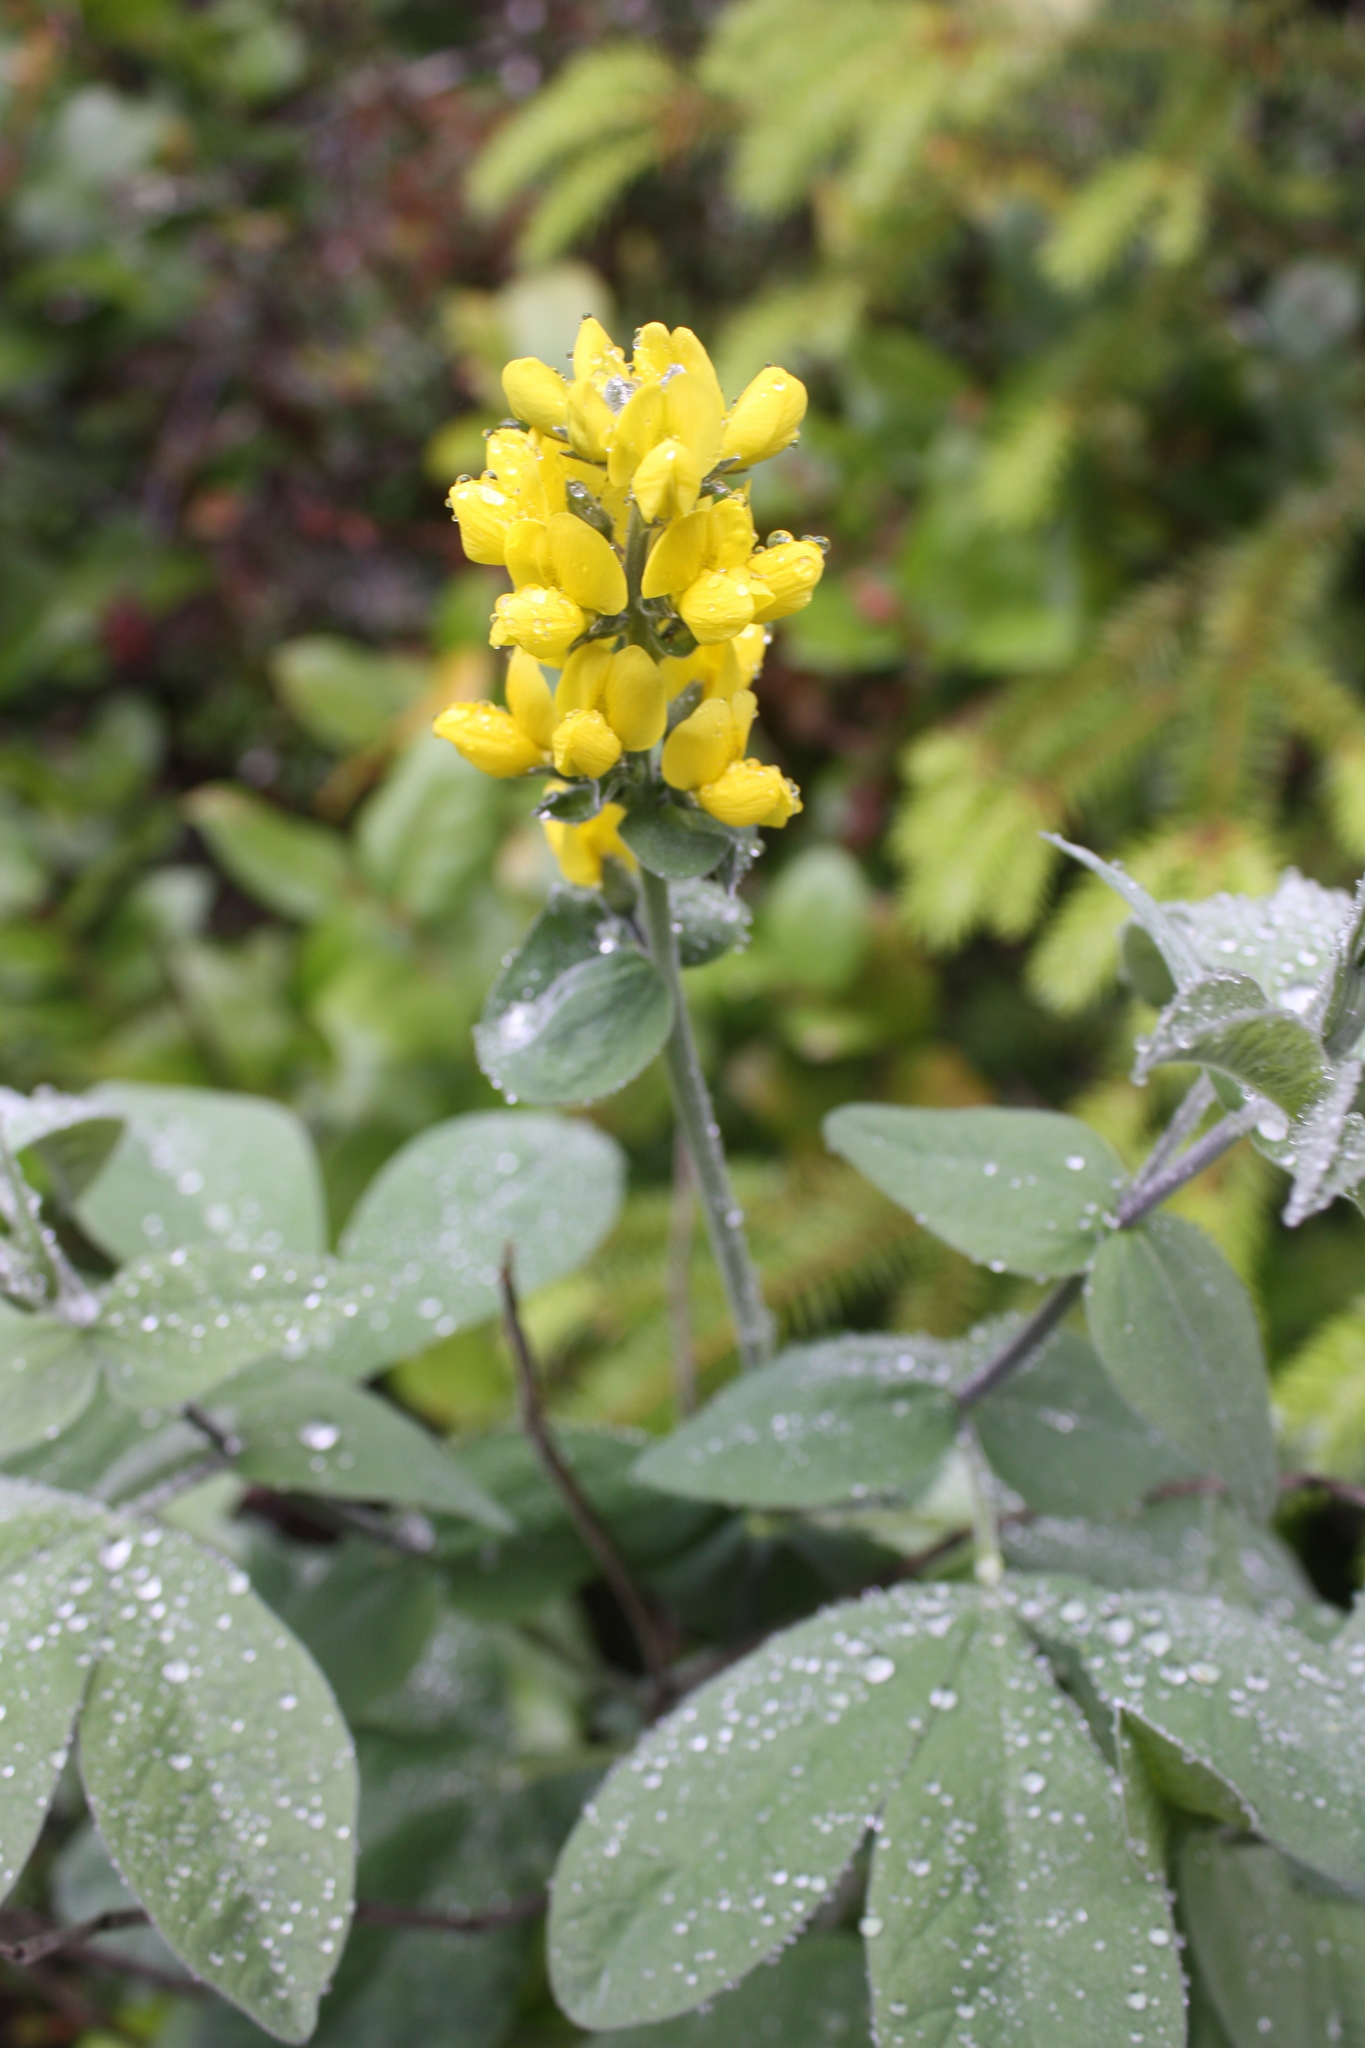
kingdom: Plantae
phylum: Tracheophyta
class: Magnoliopsida
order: Fabales
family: Fabaceae
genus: Thermopsis
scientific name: Thermopsis californica
